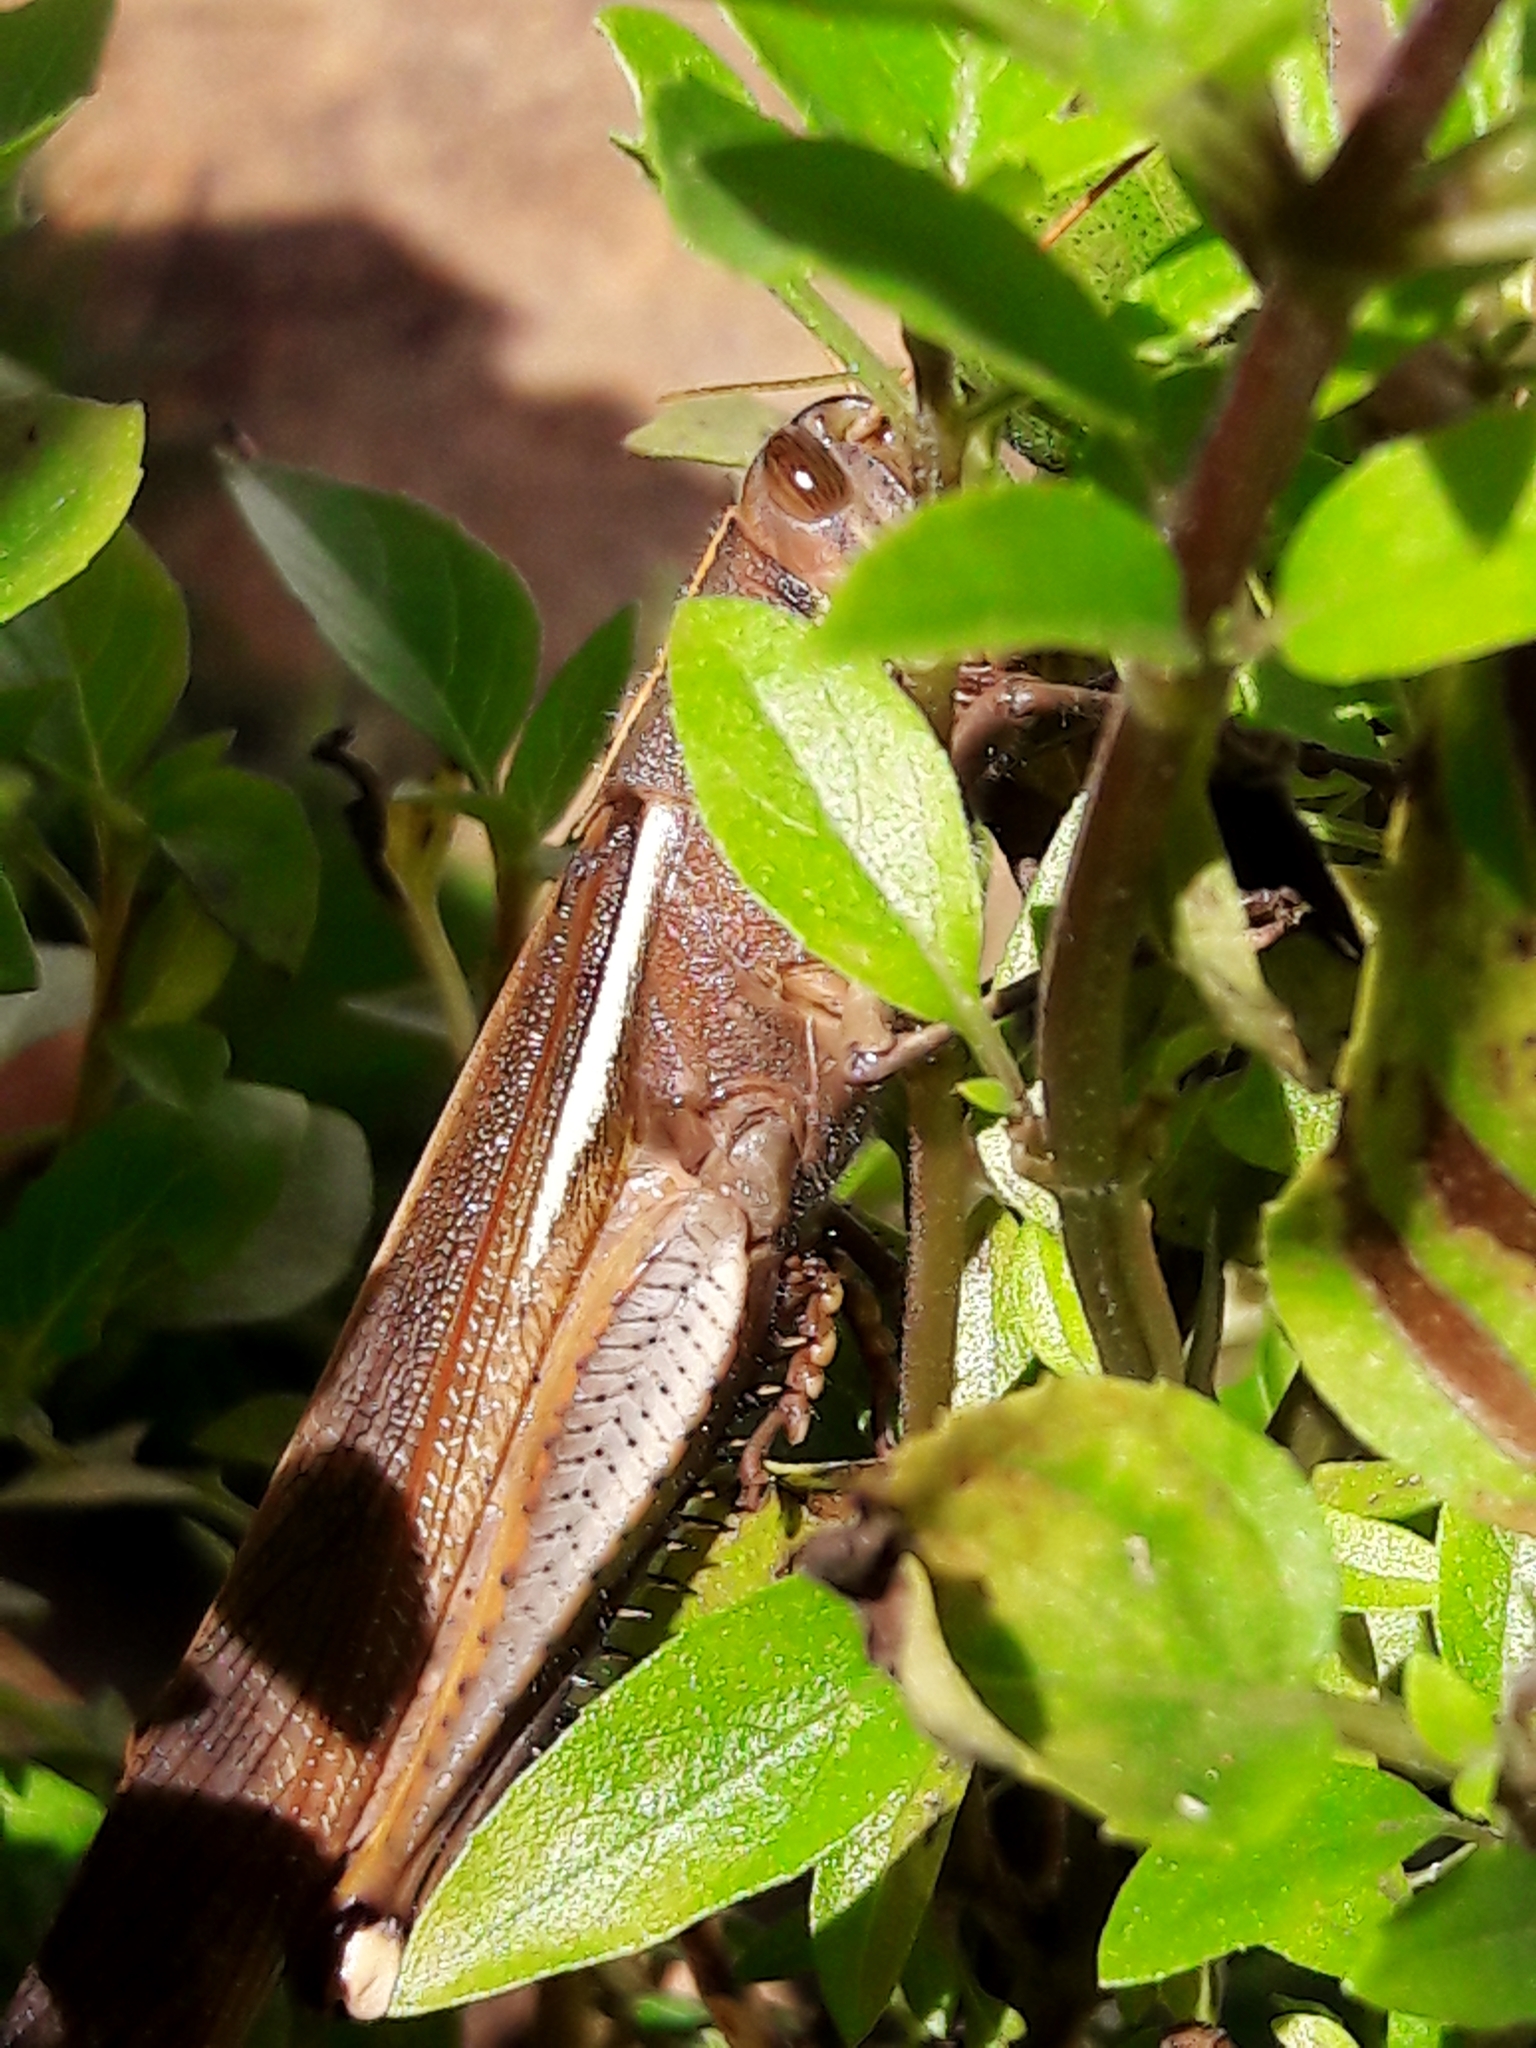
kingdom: Animalia
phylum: Arthropoda
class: Insecta
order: Orthoptera
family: Acrididae
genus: Schistocerca
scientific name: Schistocerca flavofasciata
